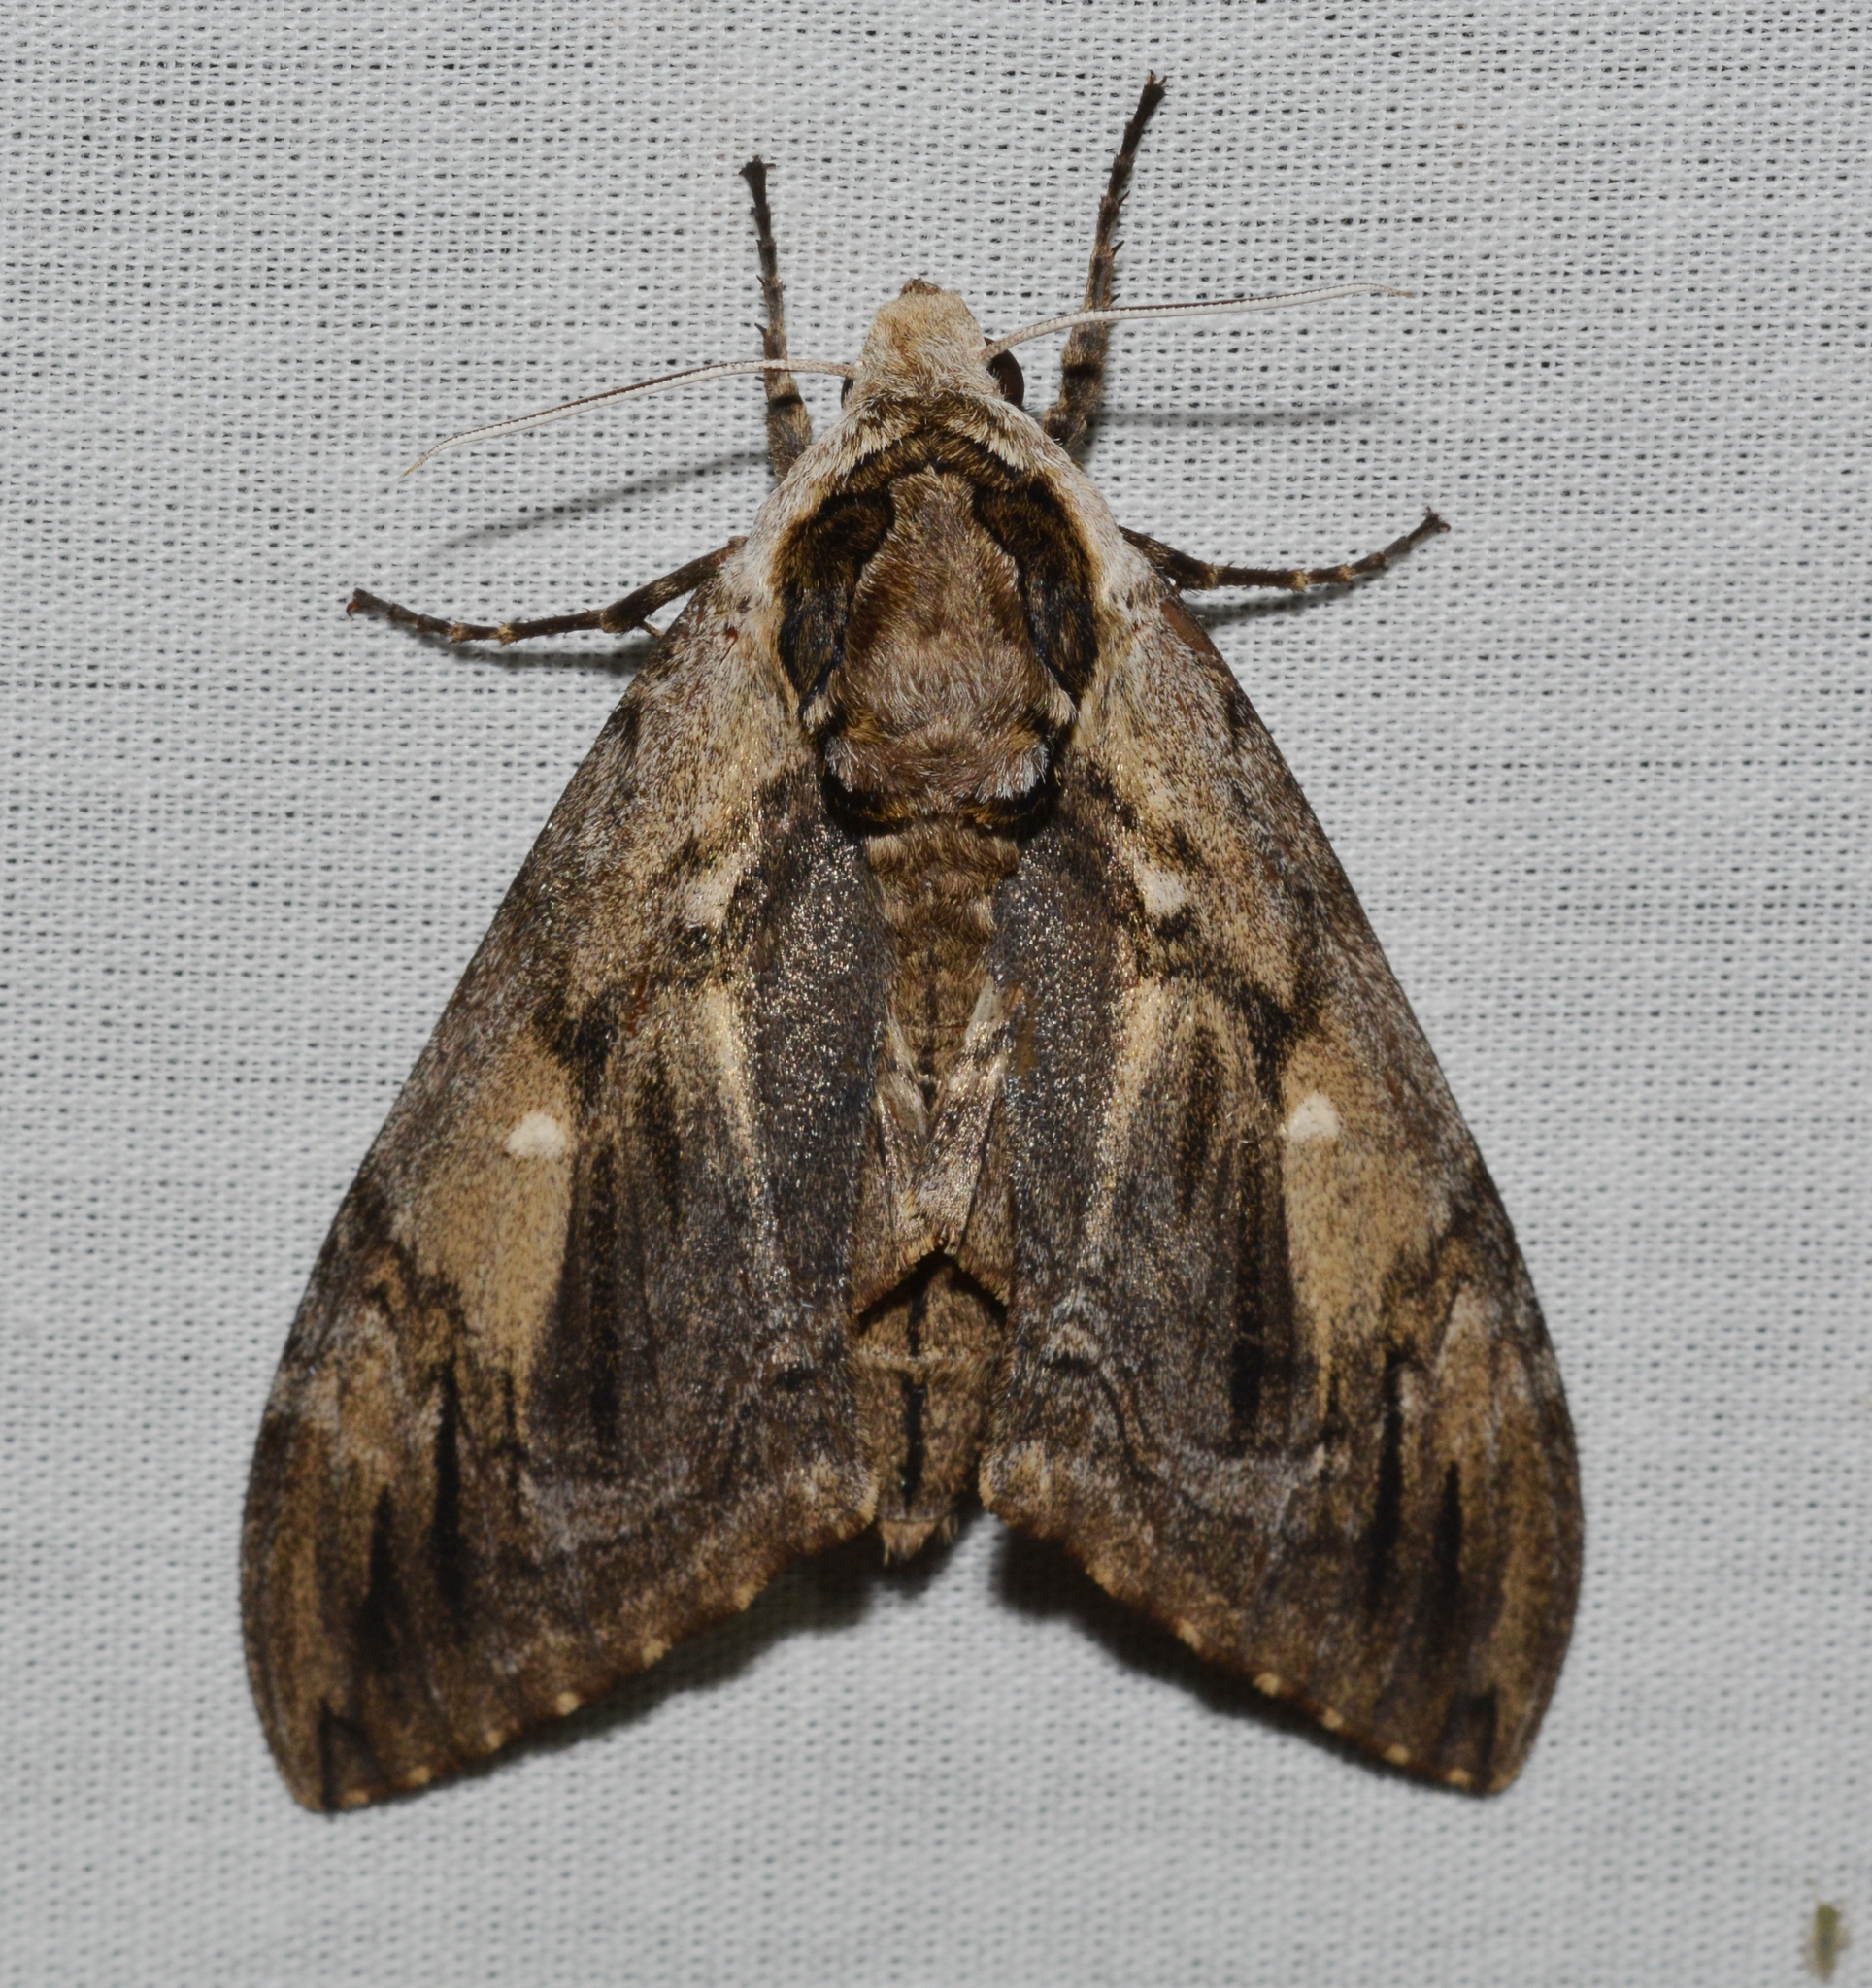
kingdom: Animalia
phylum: Arthropoda
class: Insecta
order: Lepidoptera
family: Sphingidae
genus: Ceratomia
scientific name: Ceratomia amyntor
